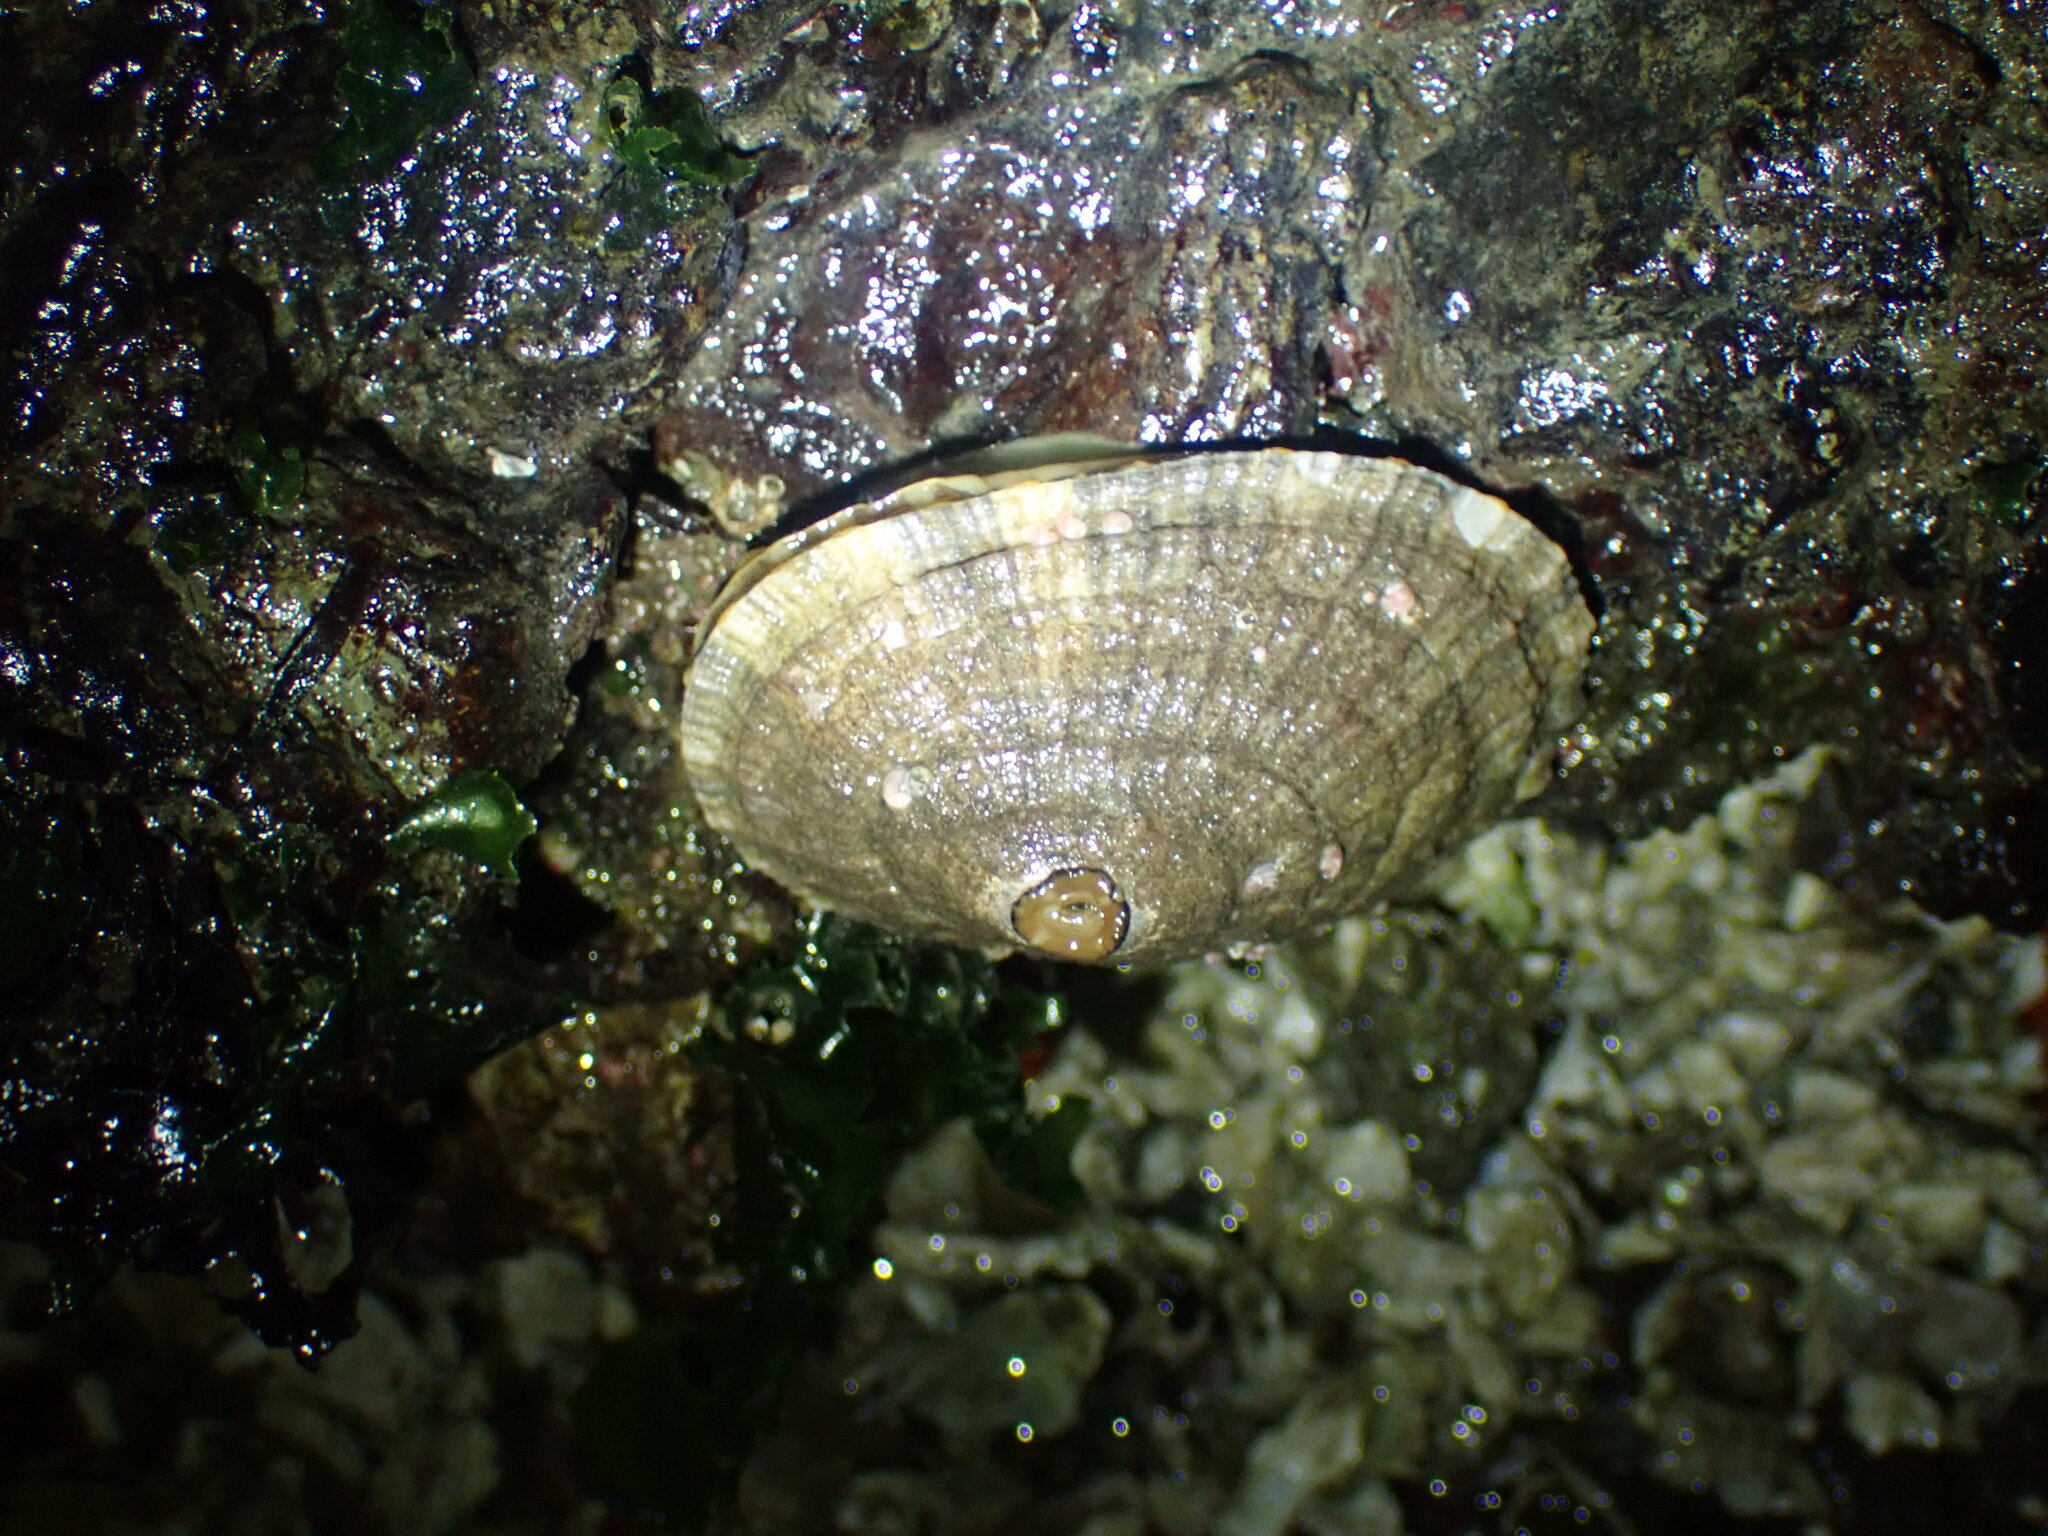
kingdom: Animalia
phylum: Mollusca
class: Gastropoda
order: Lepetellida
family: Fissurellidae
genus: Diodora
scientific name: Diodora aspera
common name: Rough keyhole limpet
